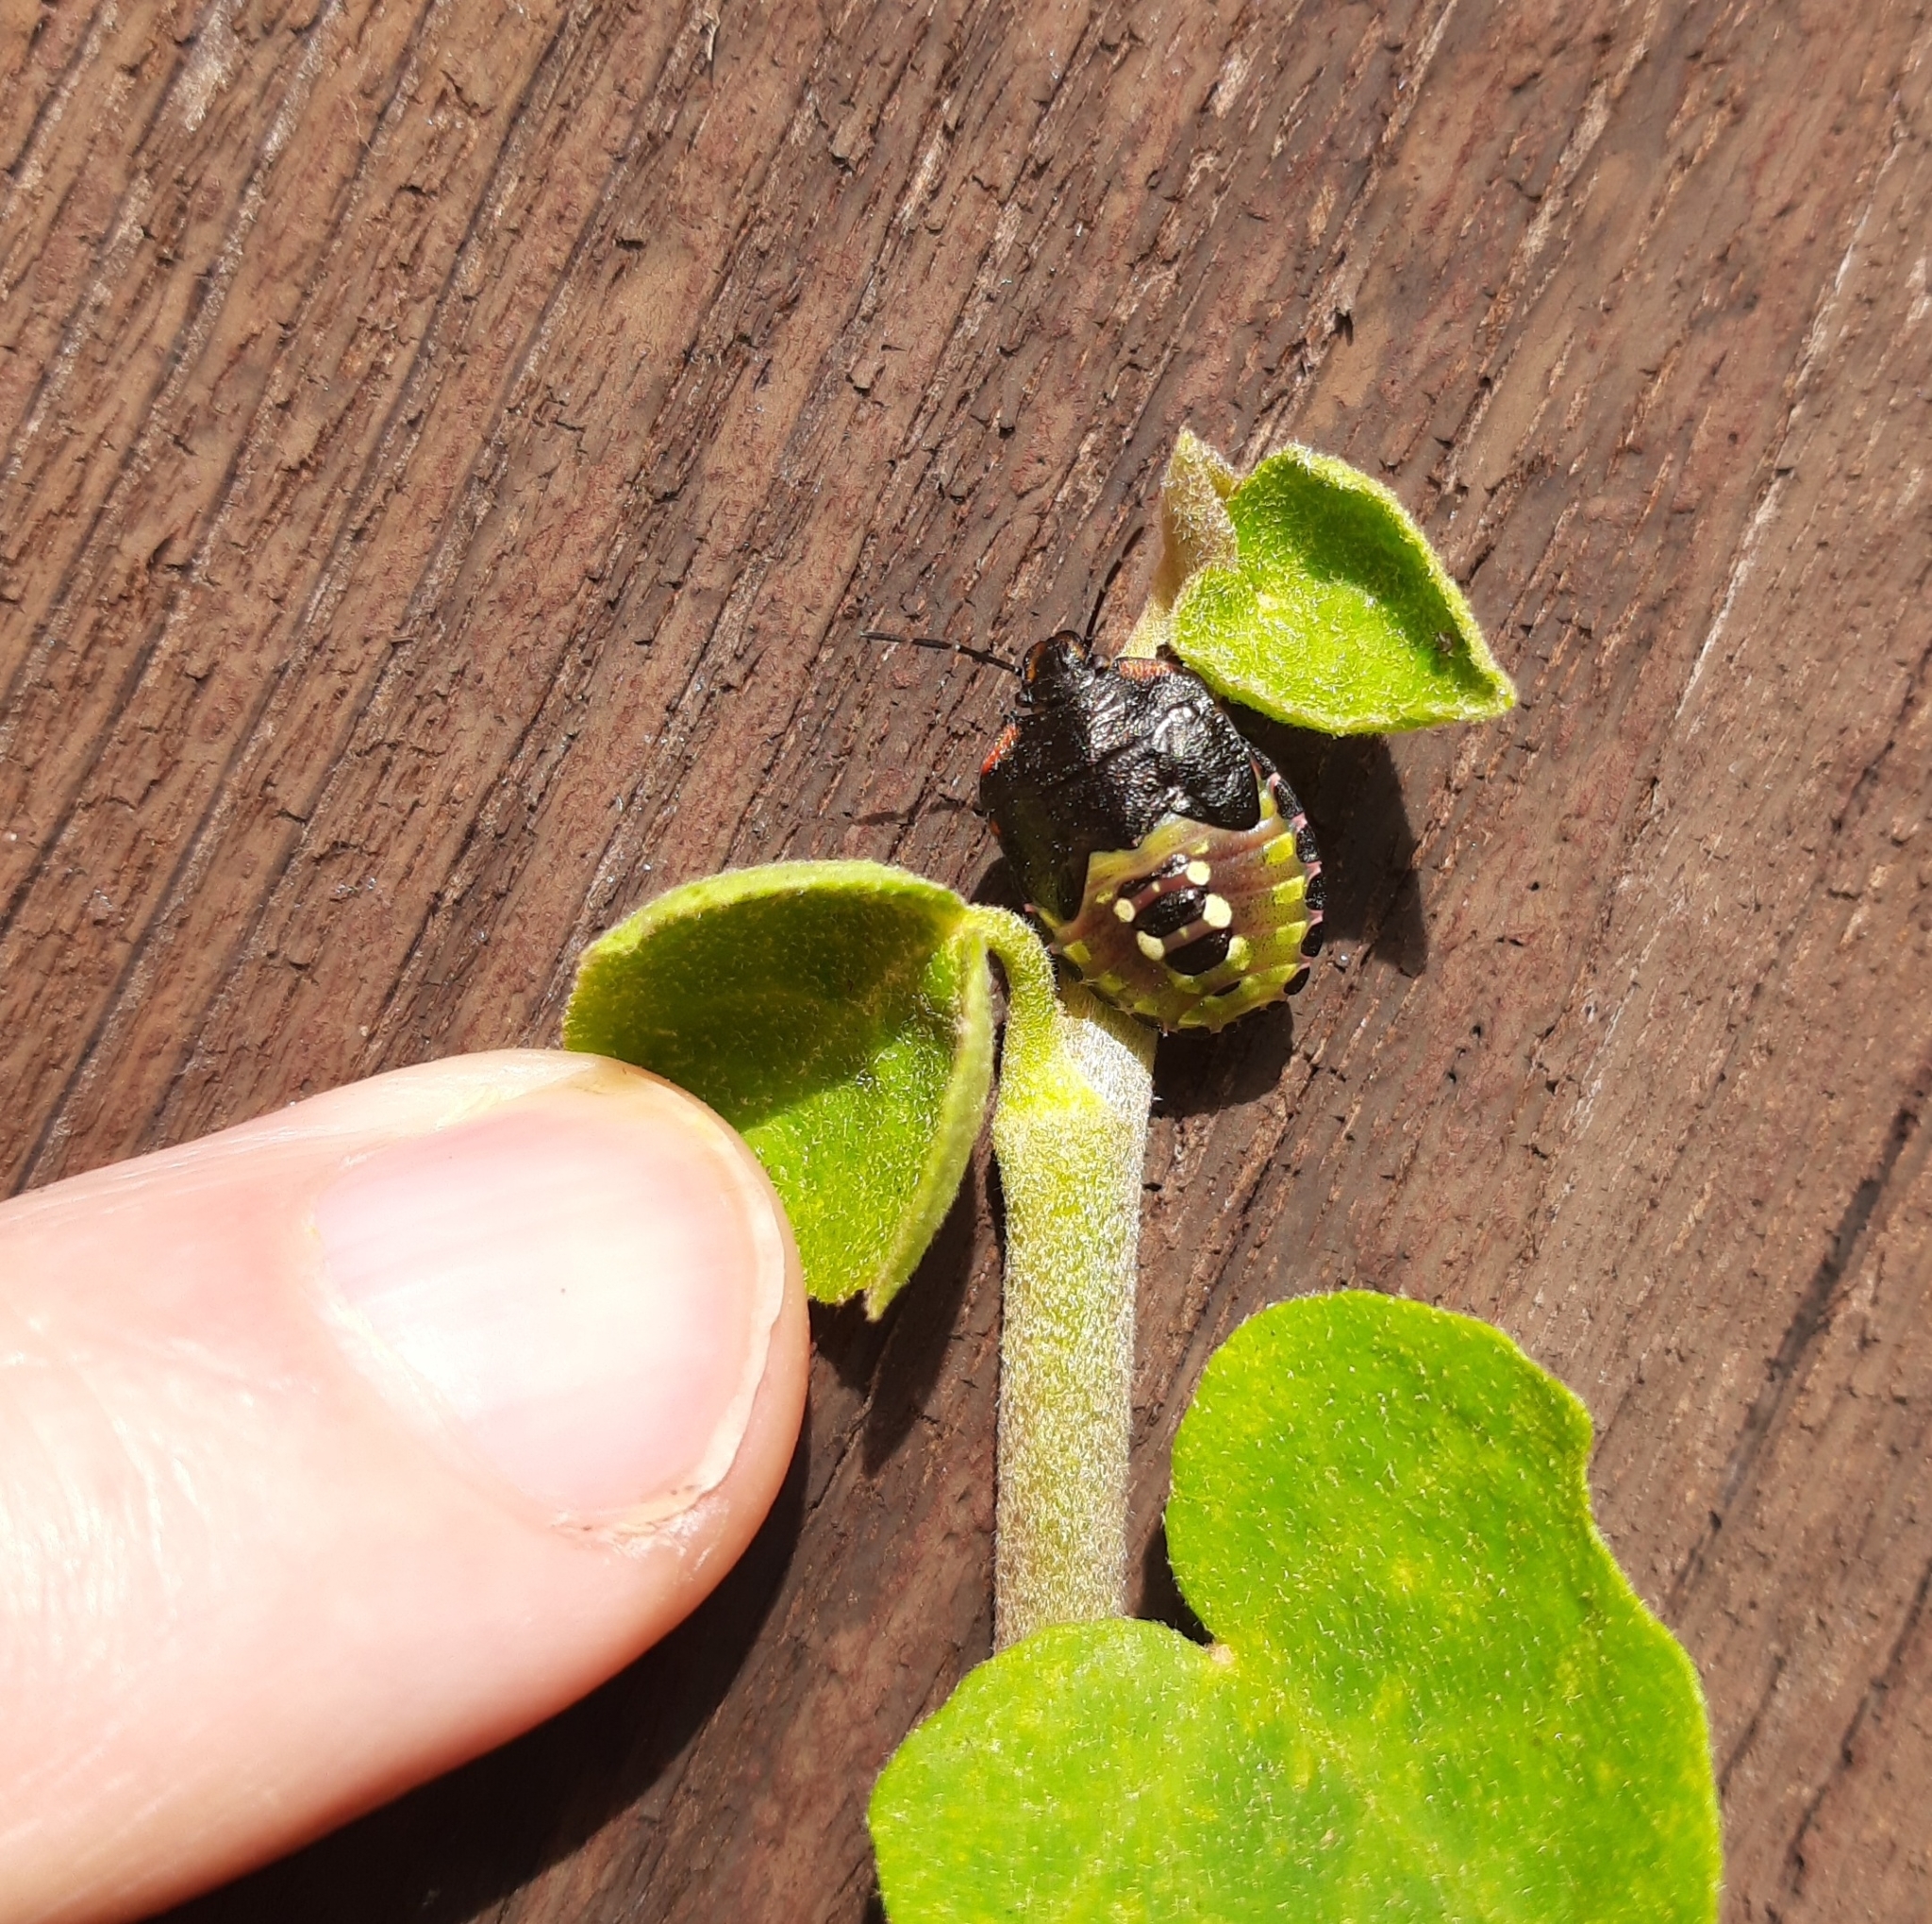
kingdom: Animalia
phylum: Arthropoda
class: Insecta
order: Hemiptera
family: Pentatomidae
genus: Nezara
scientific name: Nezara viridula
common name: Southern green stink bug
